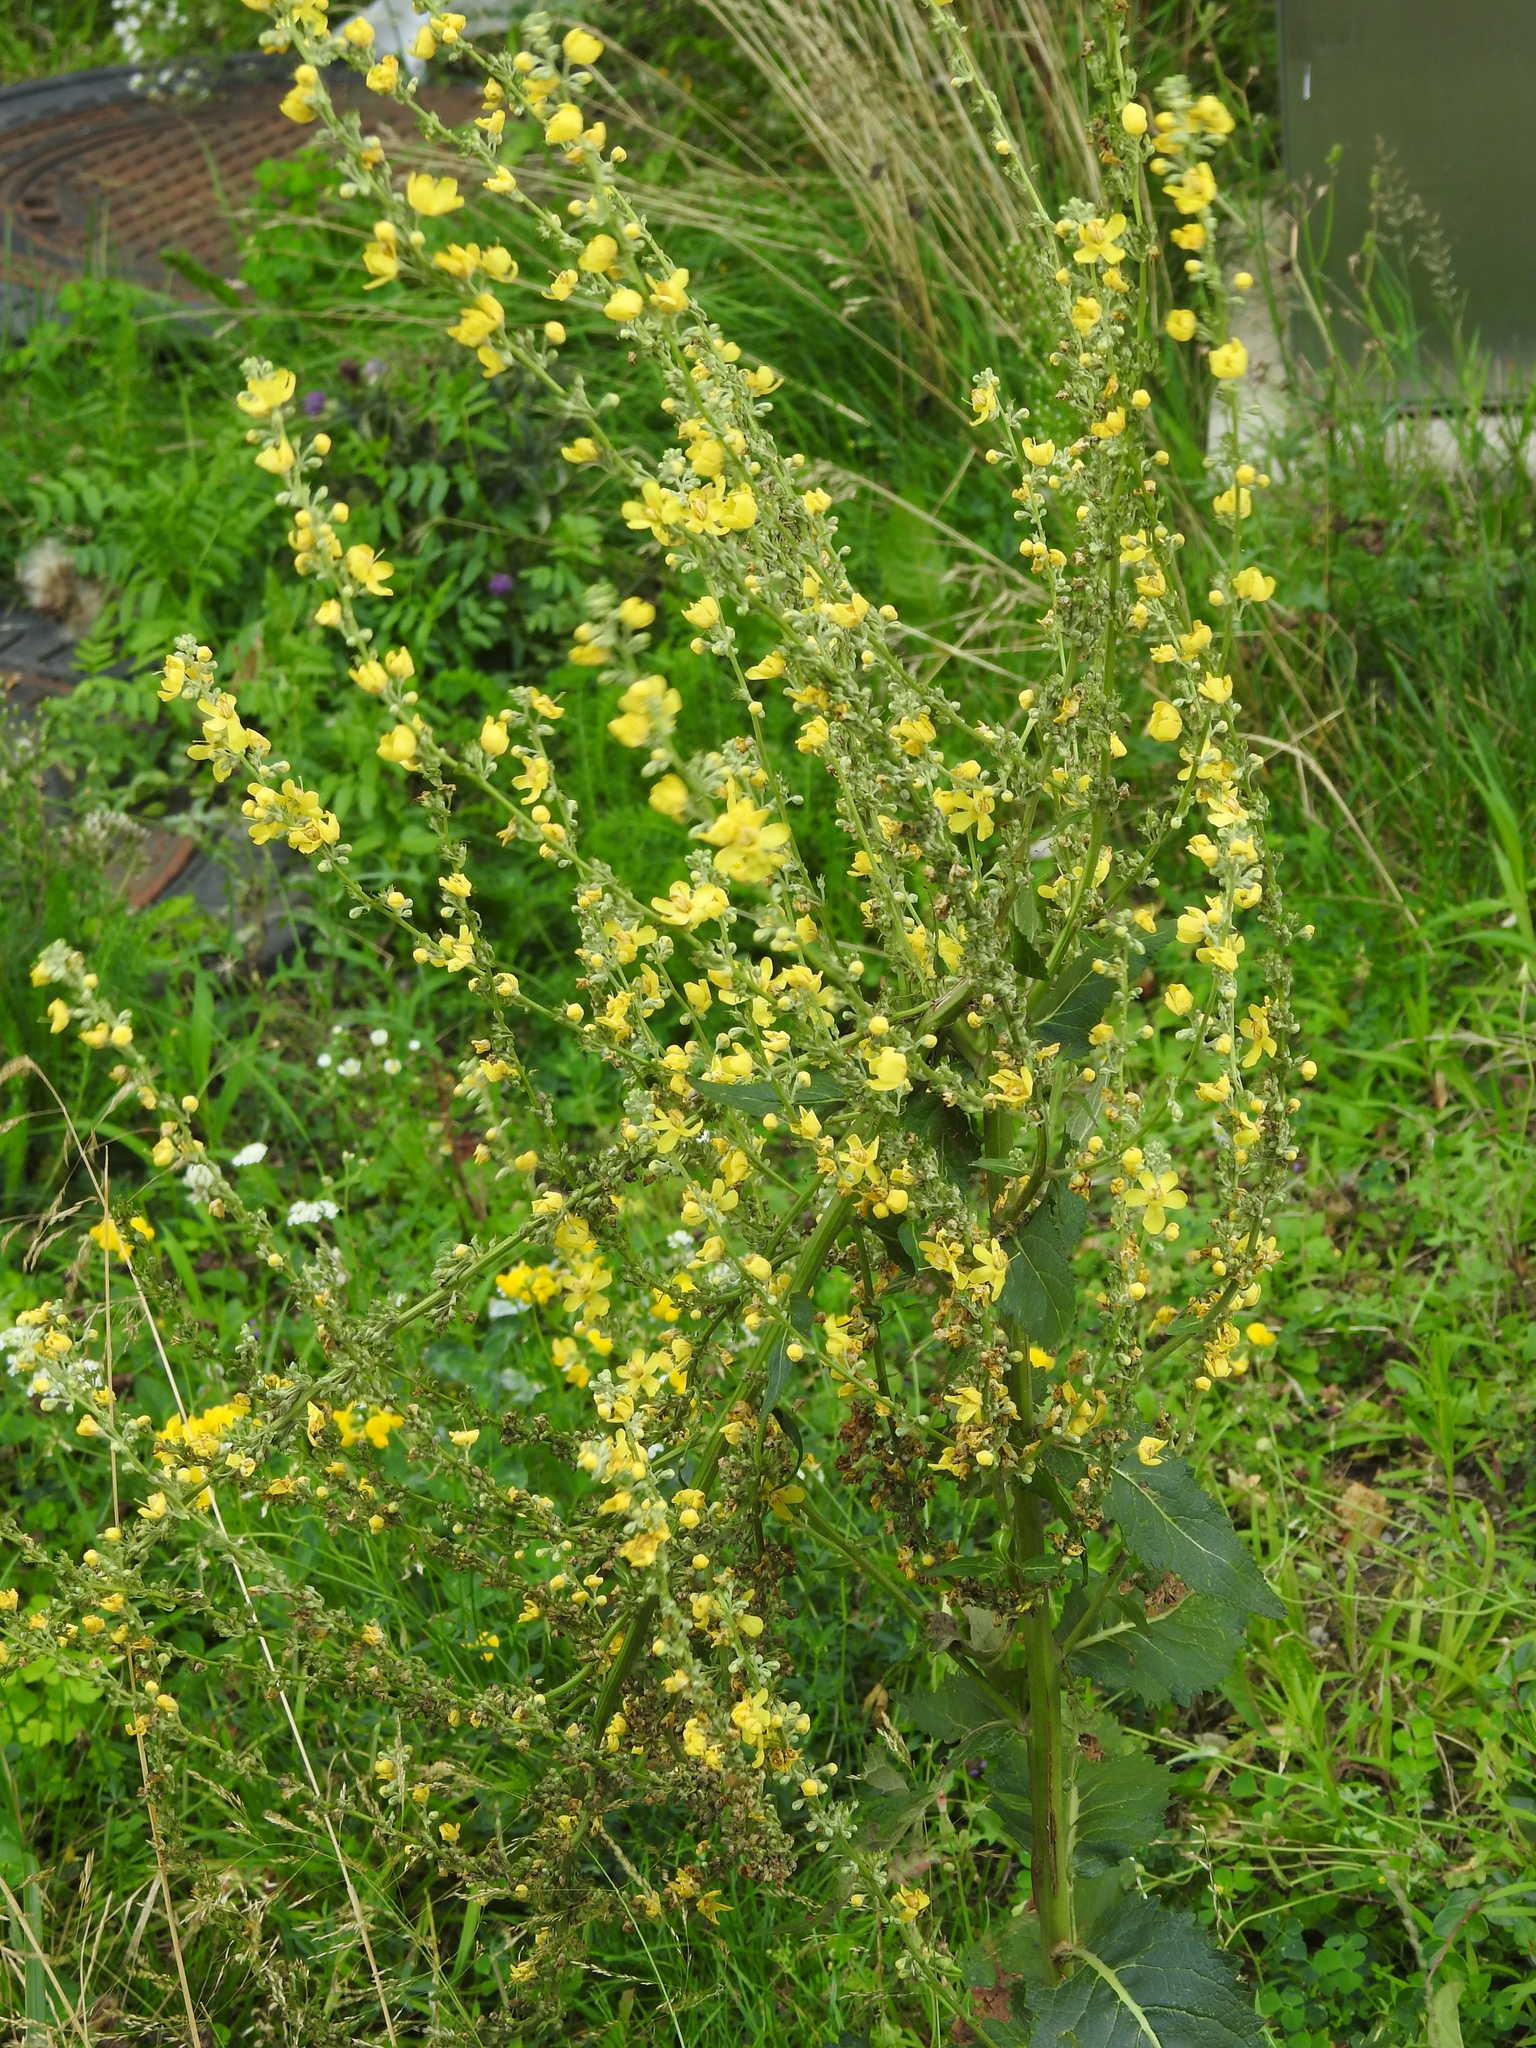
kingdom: Plantae
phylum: Tracheophyta
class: Magnoliopsida
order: Lamiales
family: Scrophulariaceae
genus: Verbascum
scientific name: Verbascum lychnitis
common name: White mullein
